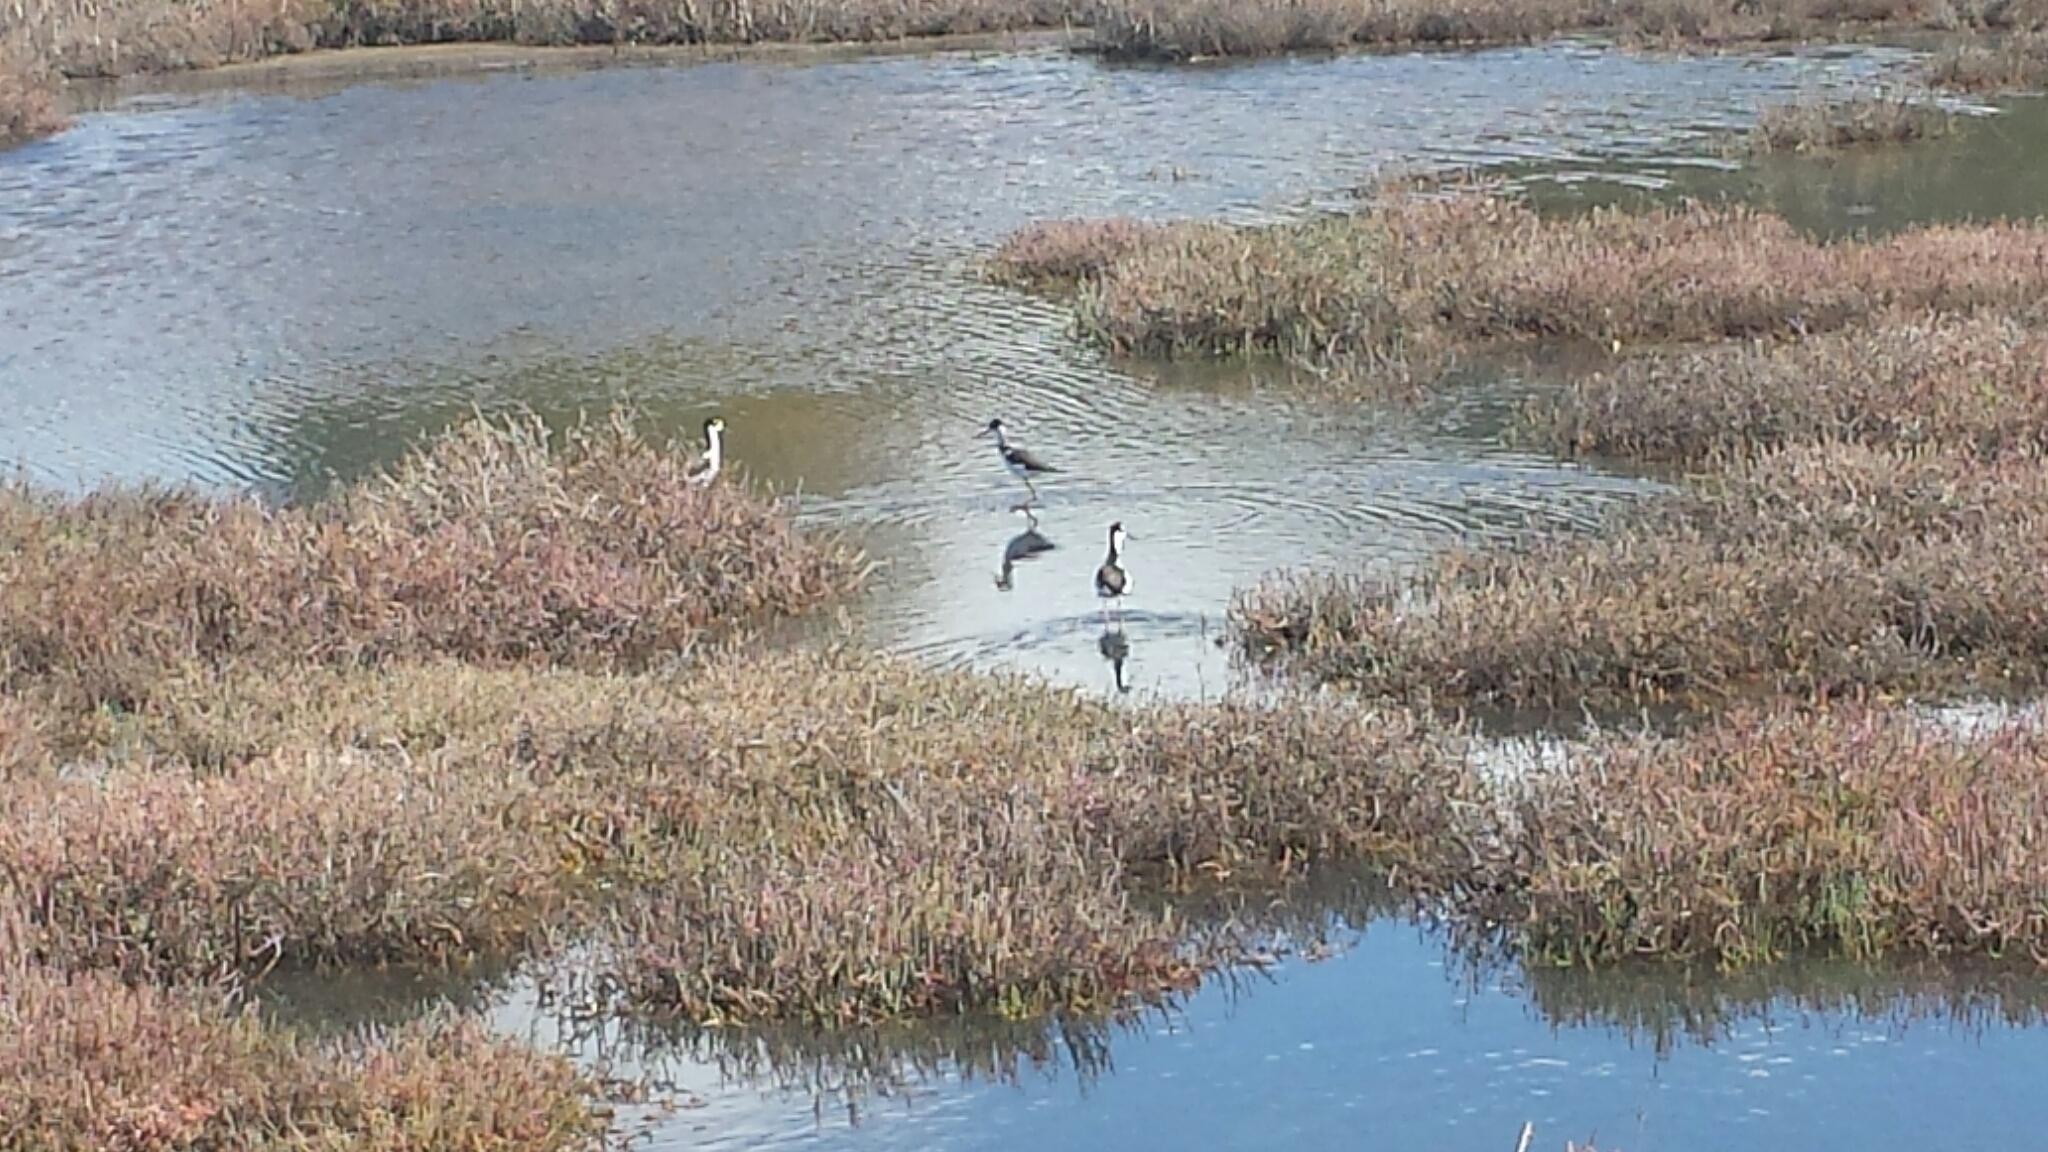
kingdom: Animalia
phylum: Chordata
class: Aves
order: Charadriiformes
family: Recurvirostridae
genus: Himantopus
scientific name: Himantopus mexicanus
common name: Black-necked stilt
